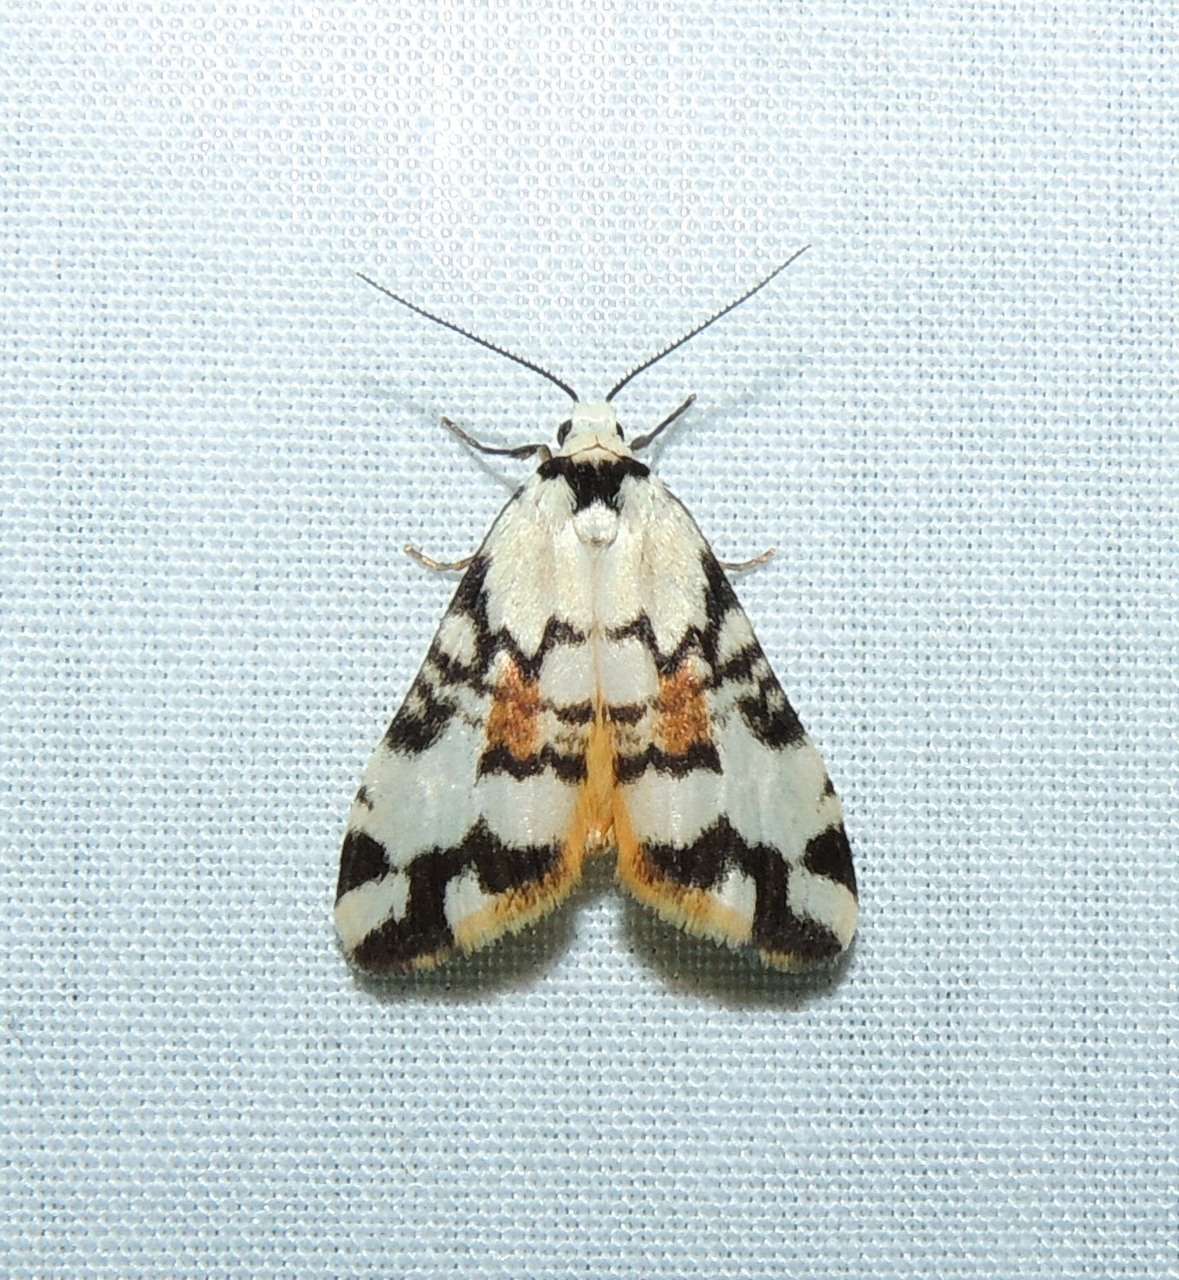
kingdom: Animalia
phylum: Arthropoda
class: Insecta
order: Lepidoptera
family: Erebidae
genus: Thallarcha
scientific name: Thallarcha oblita
